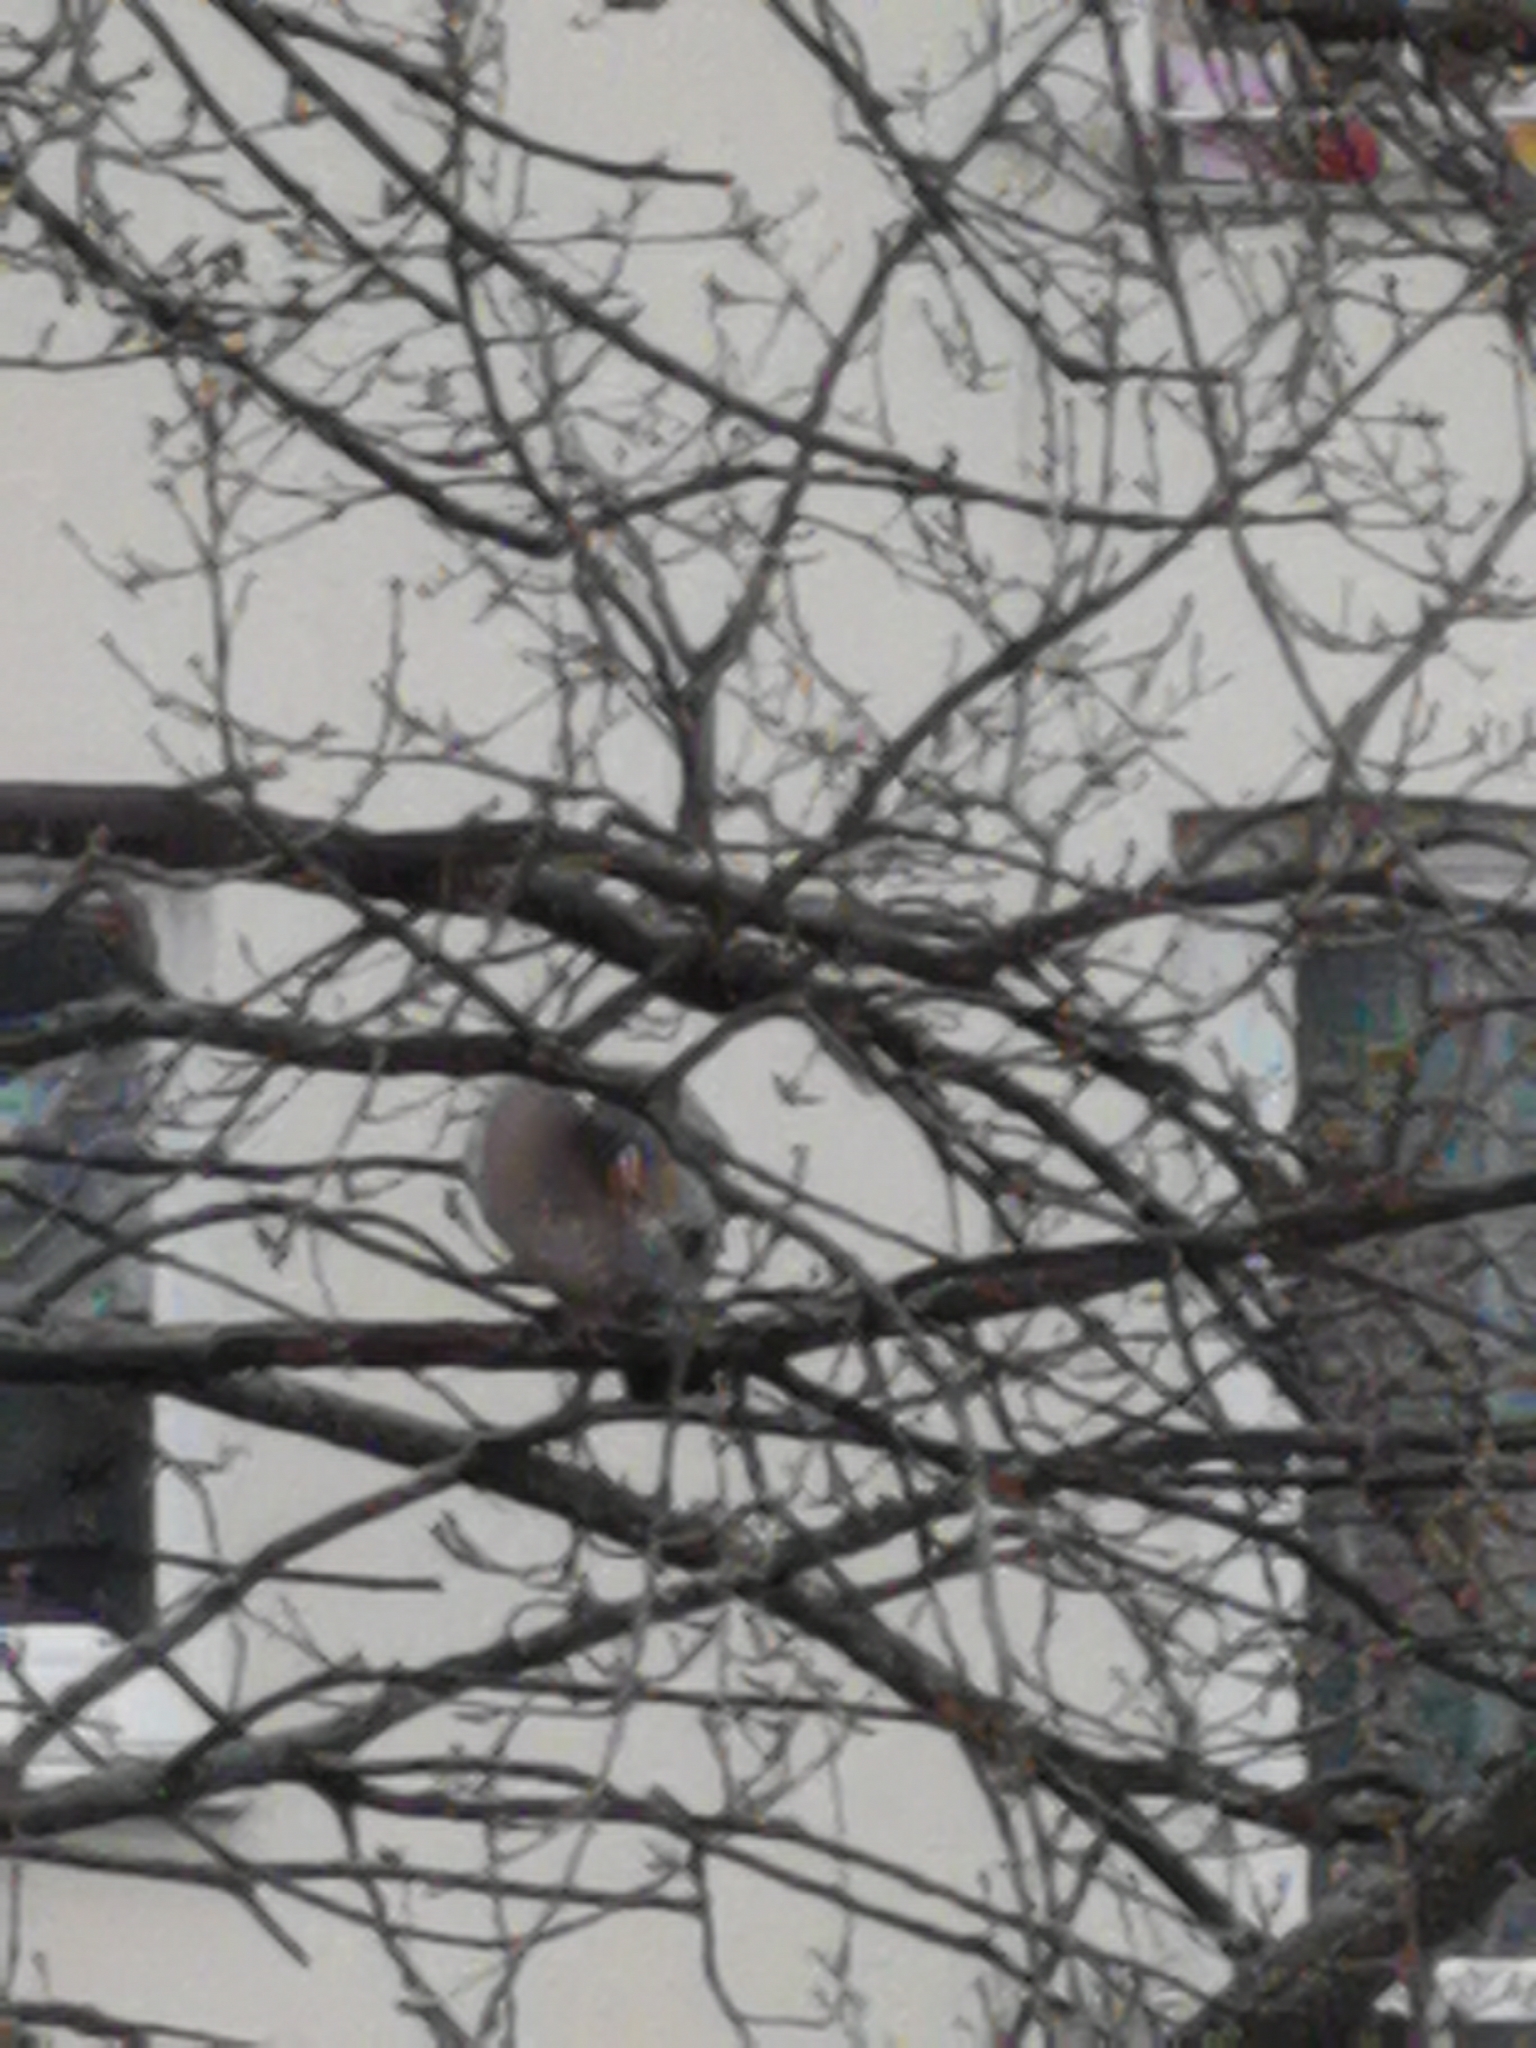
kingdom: Animalia
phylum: Chordata
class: Aves
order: Columbiformes
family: Columbidae
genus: Columba
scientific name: Columba palumbus
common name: Common wood pigeon
